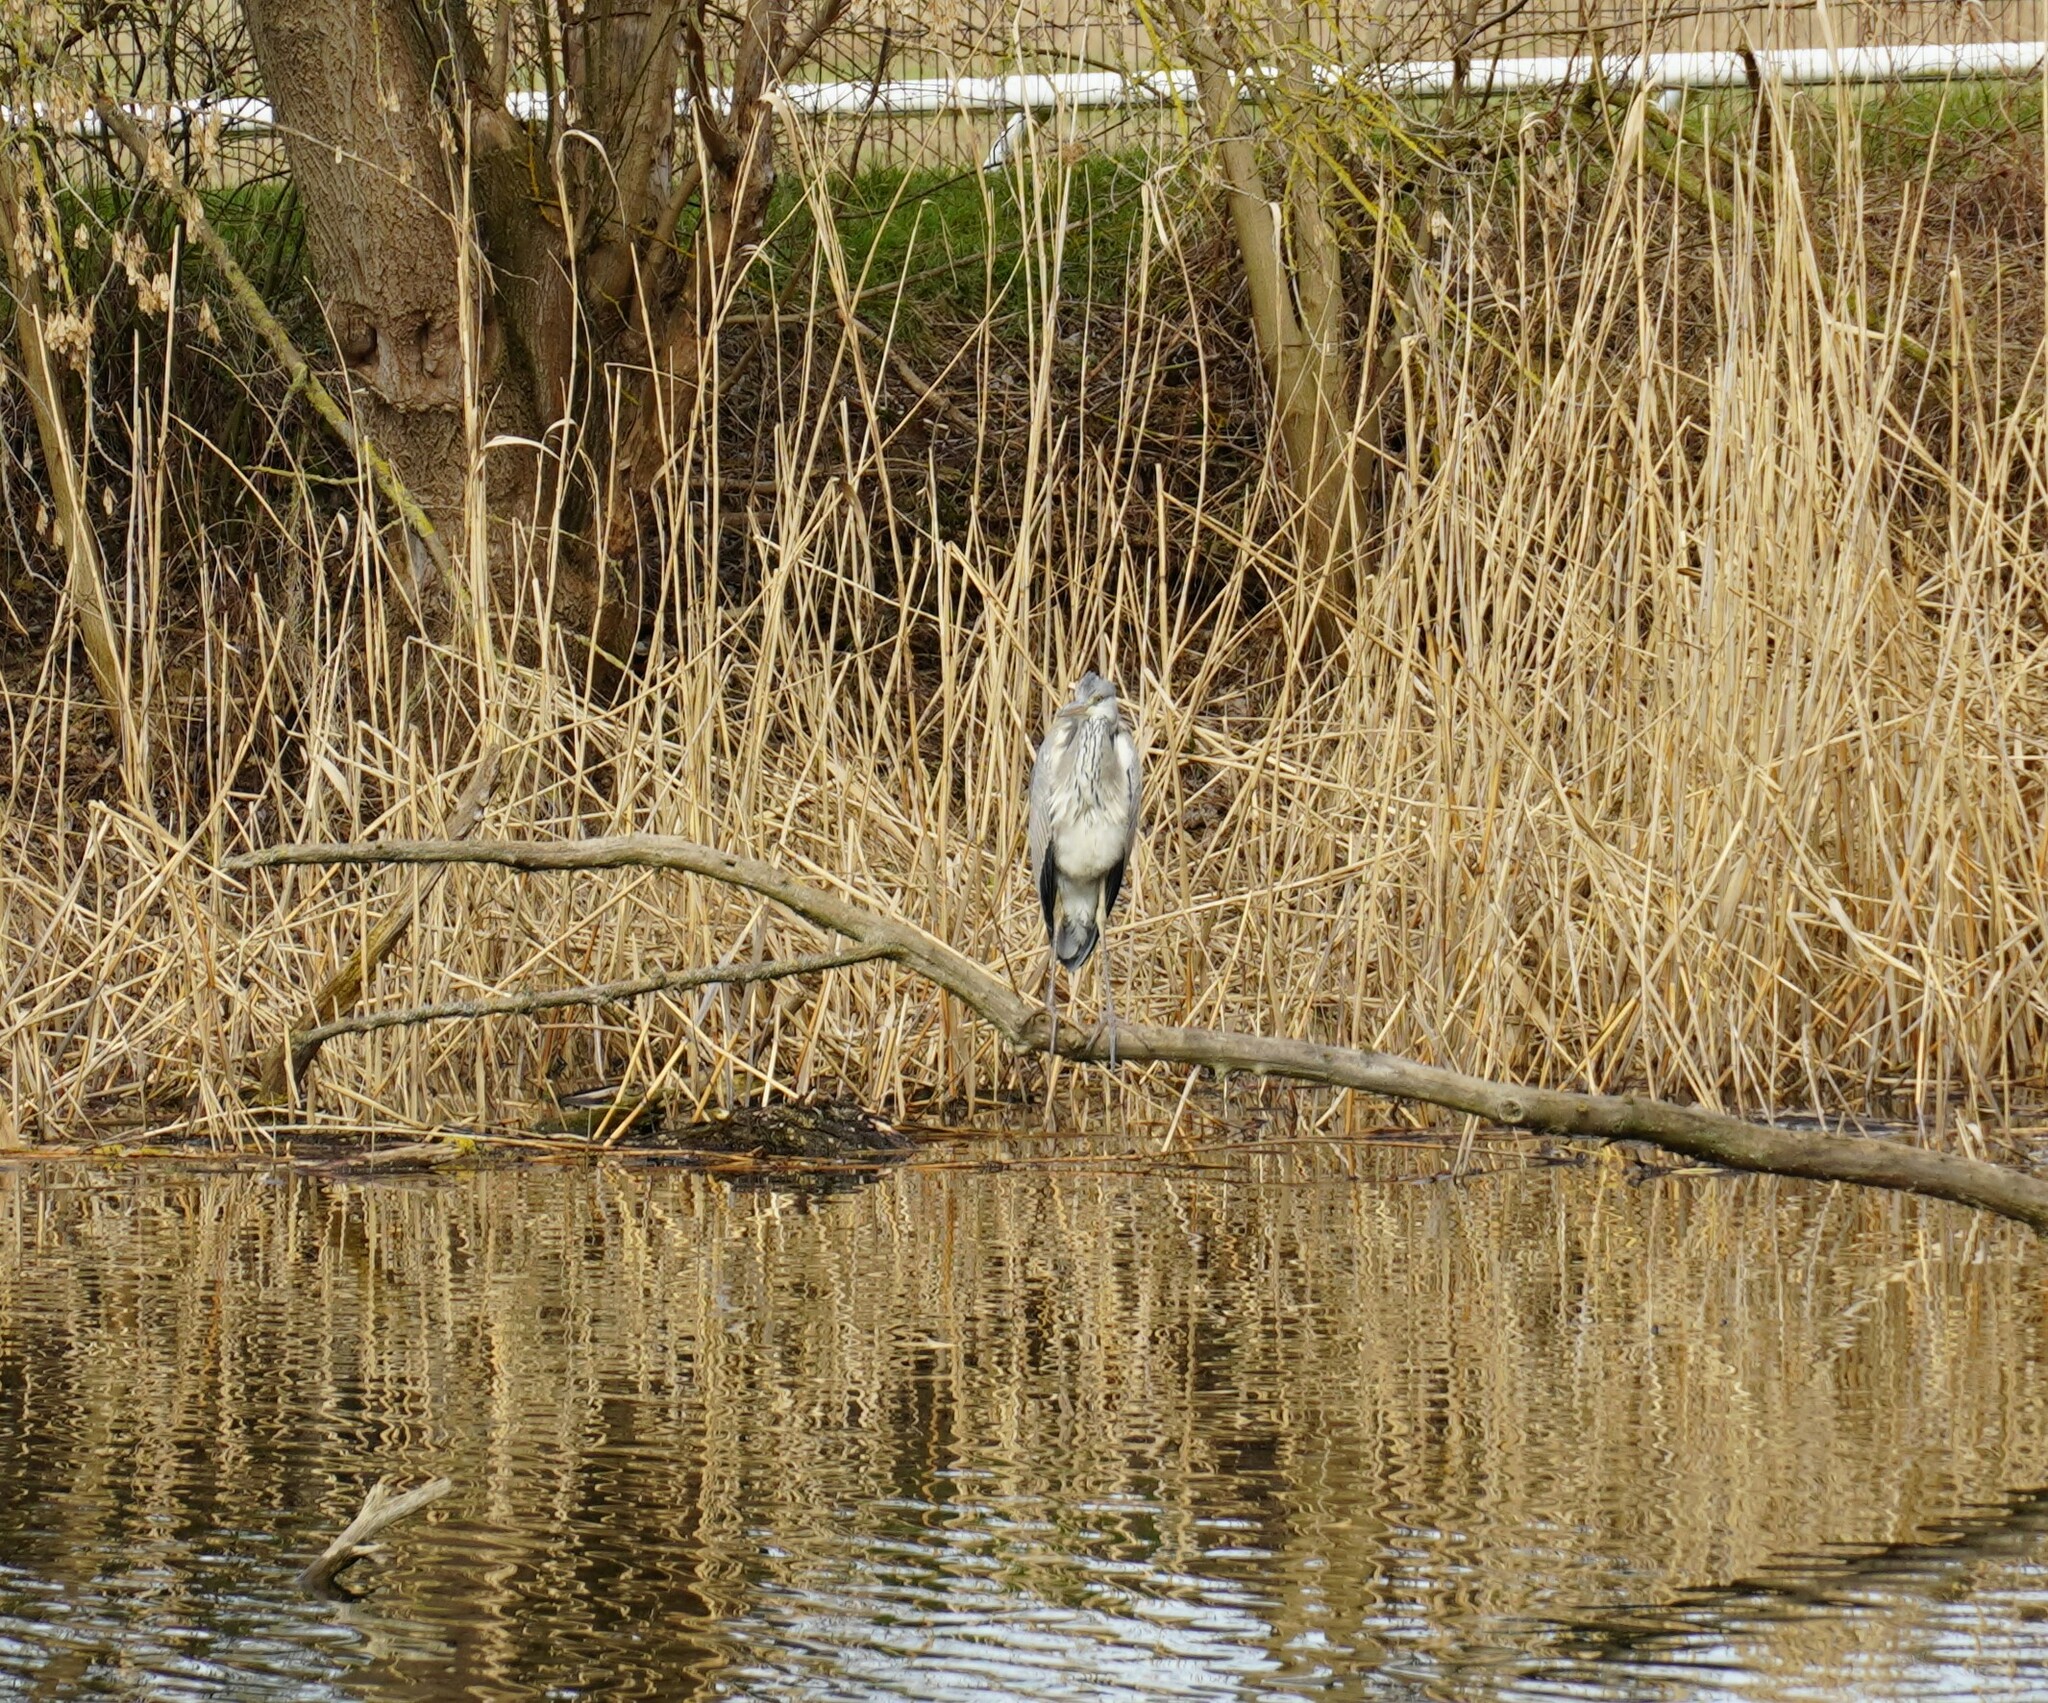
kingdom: Animalia
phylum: Chordata
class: Aves
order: Pelecaniformes
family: Ardeidae
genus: Ardea
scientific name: Ardea cinerea
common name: Grey heron
